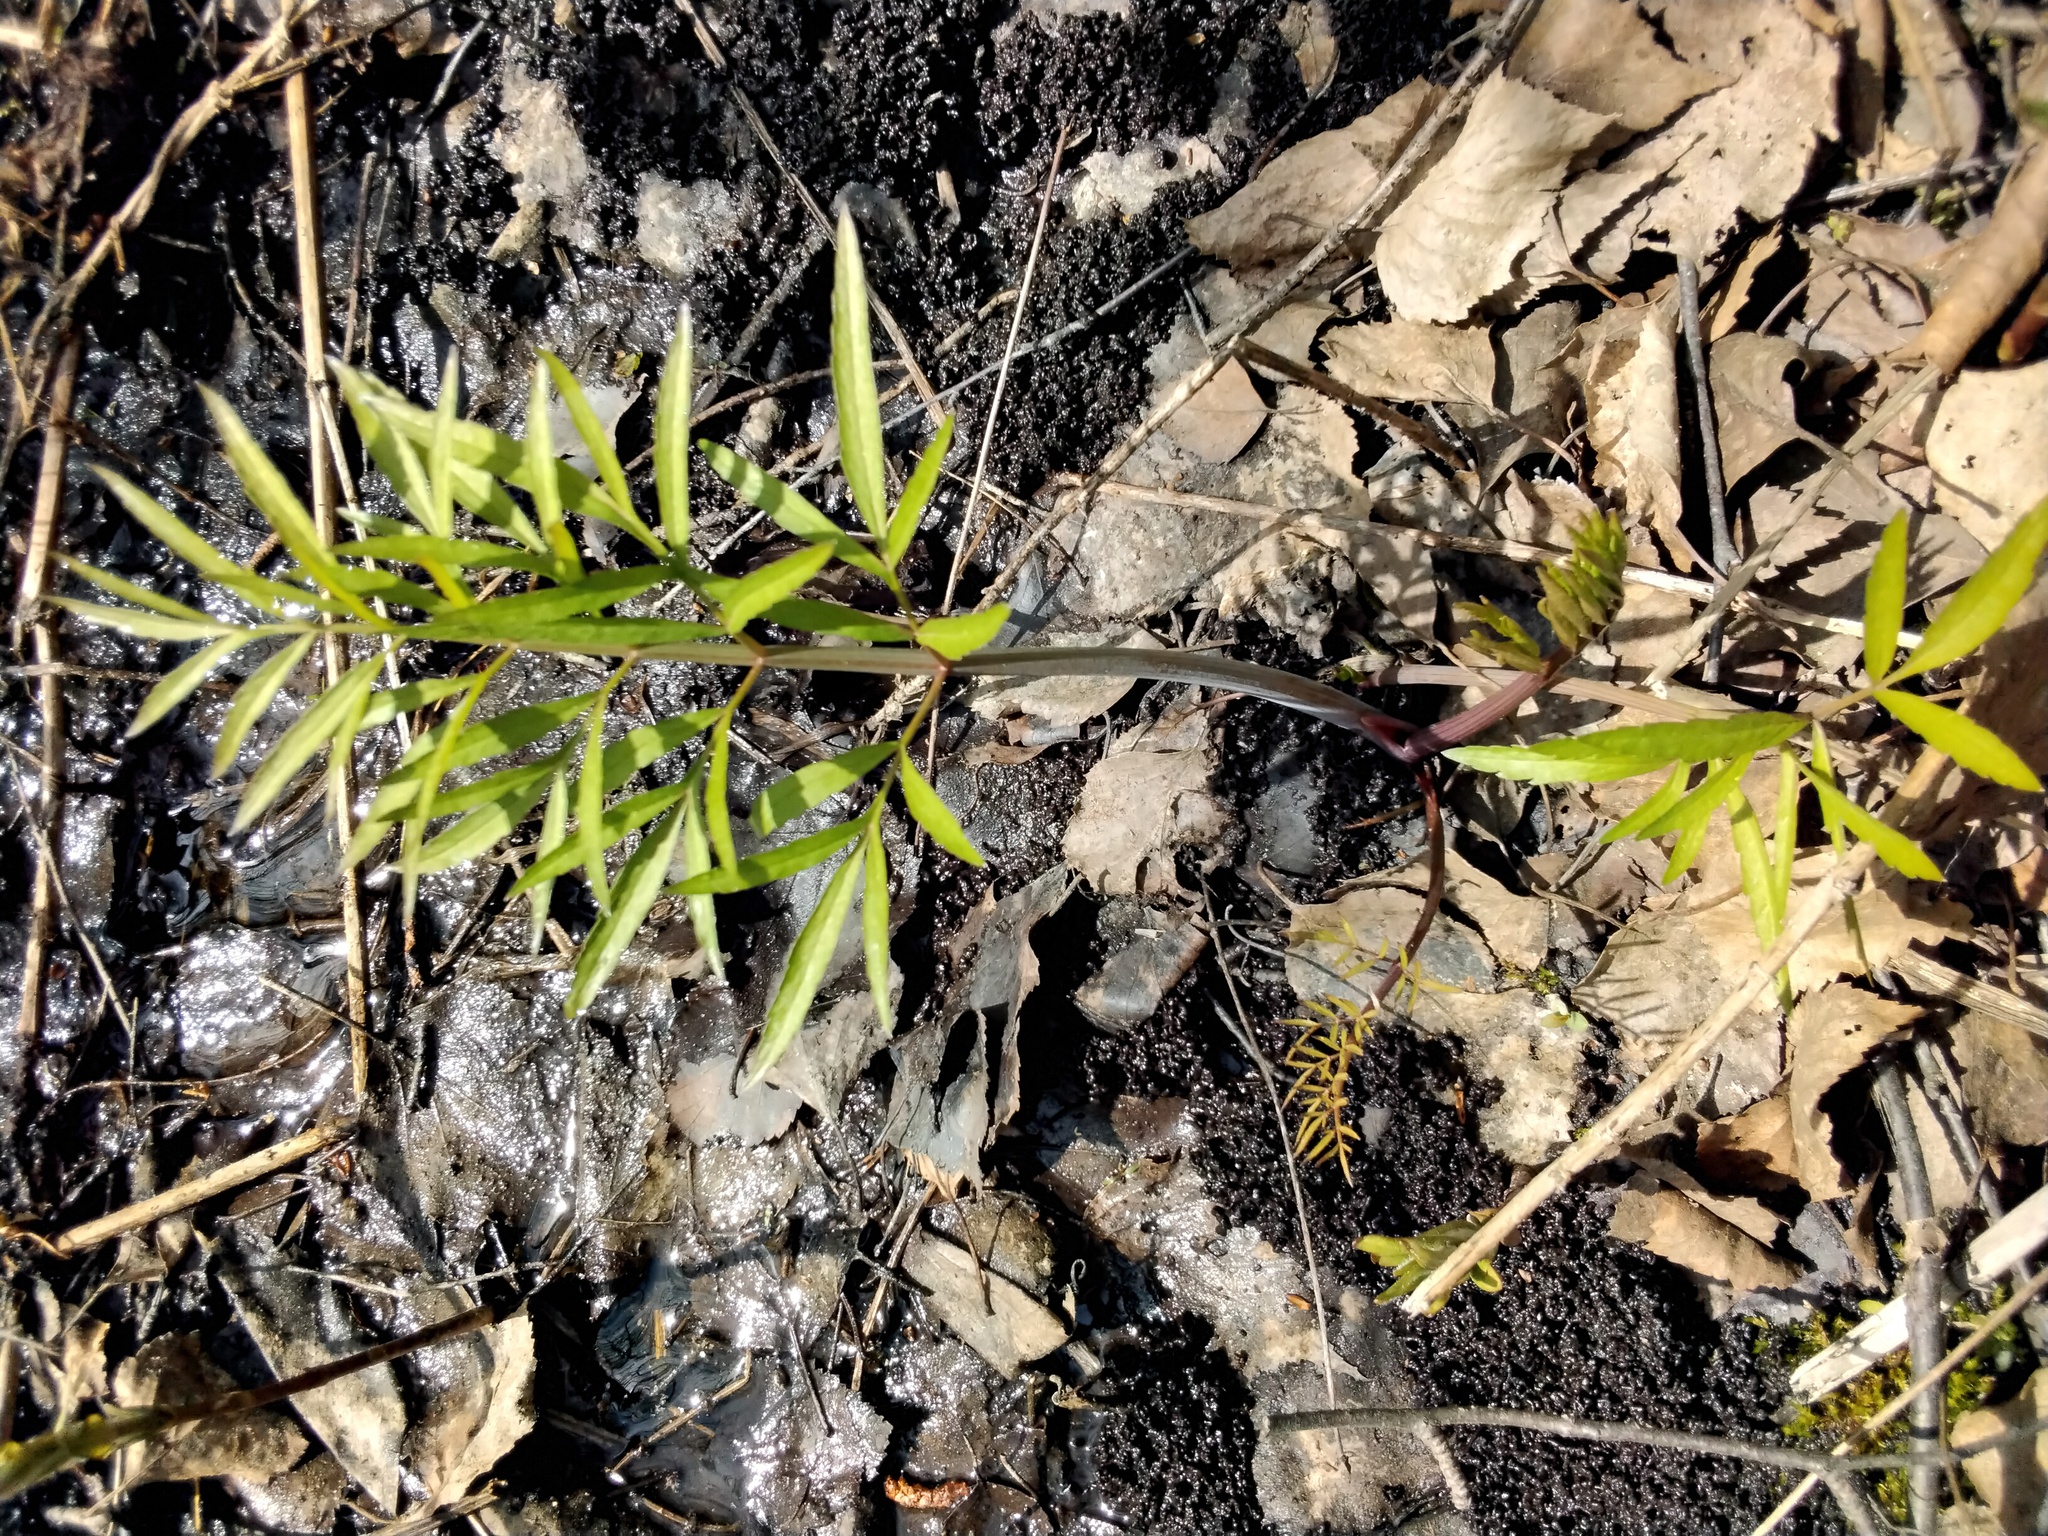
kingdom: Plantae
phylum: Tracheophyta
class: Magnoliopsida
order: Apiales
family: Apiaceae
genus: Cicuta
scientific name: Cicuta virosa
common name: Cowbane
